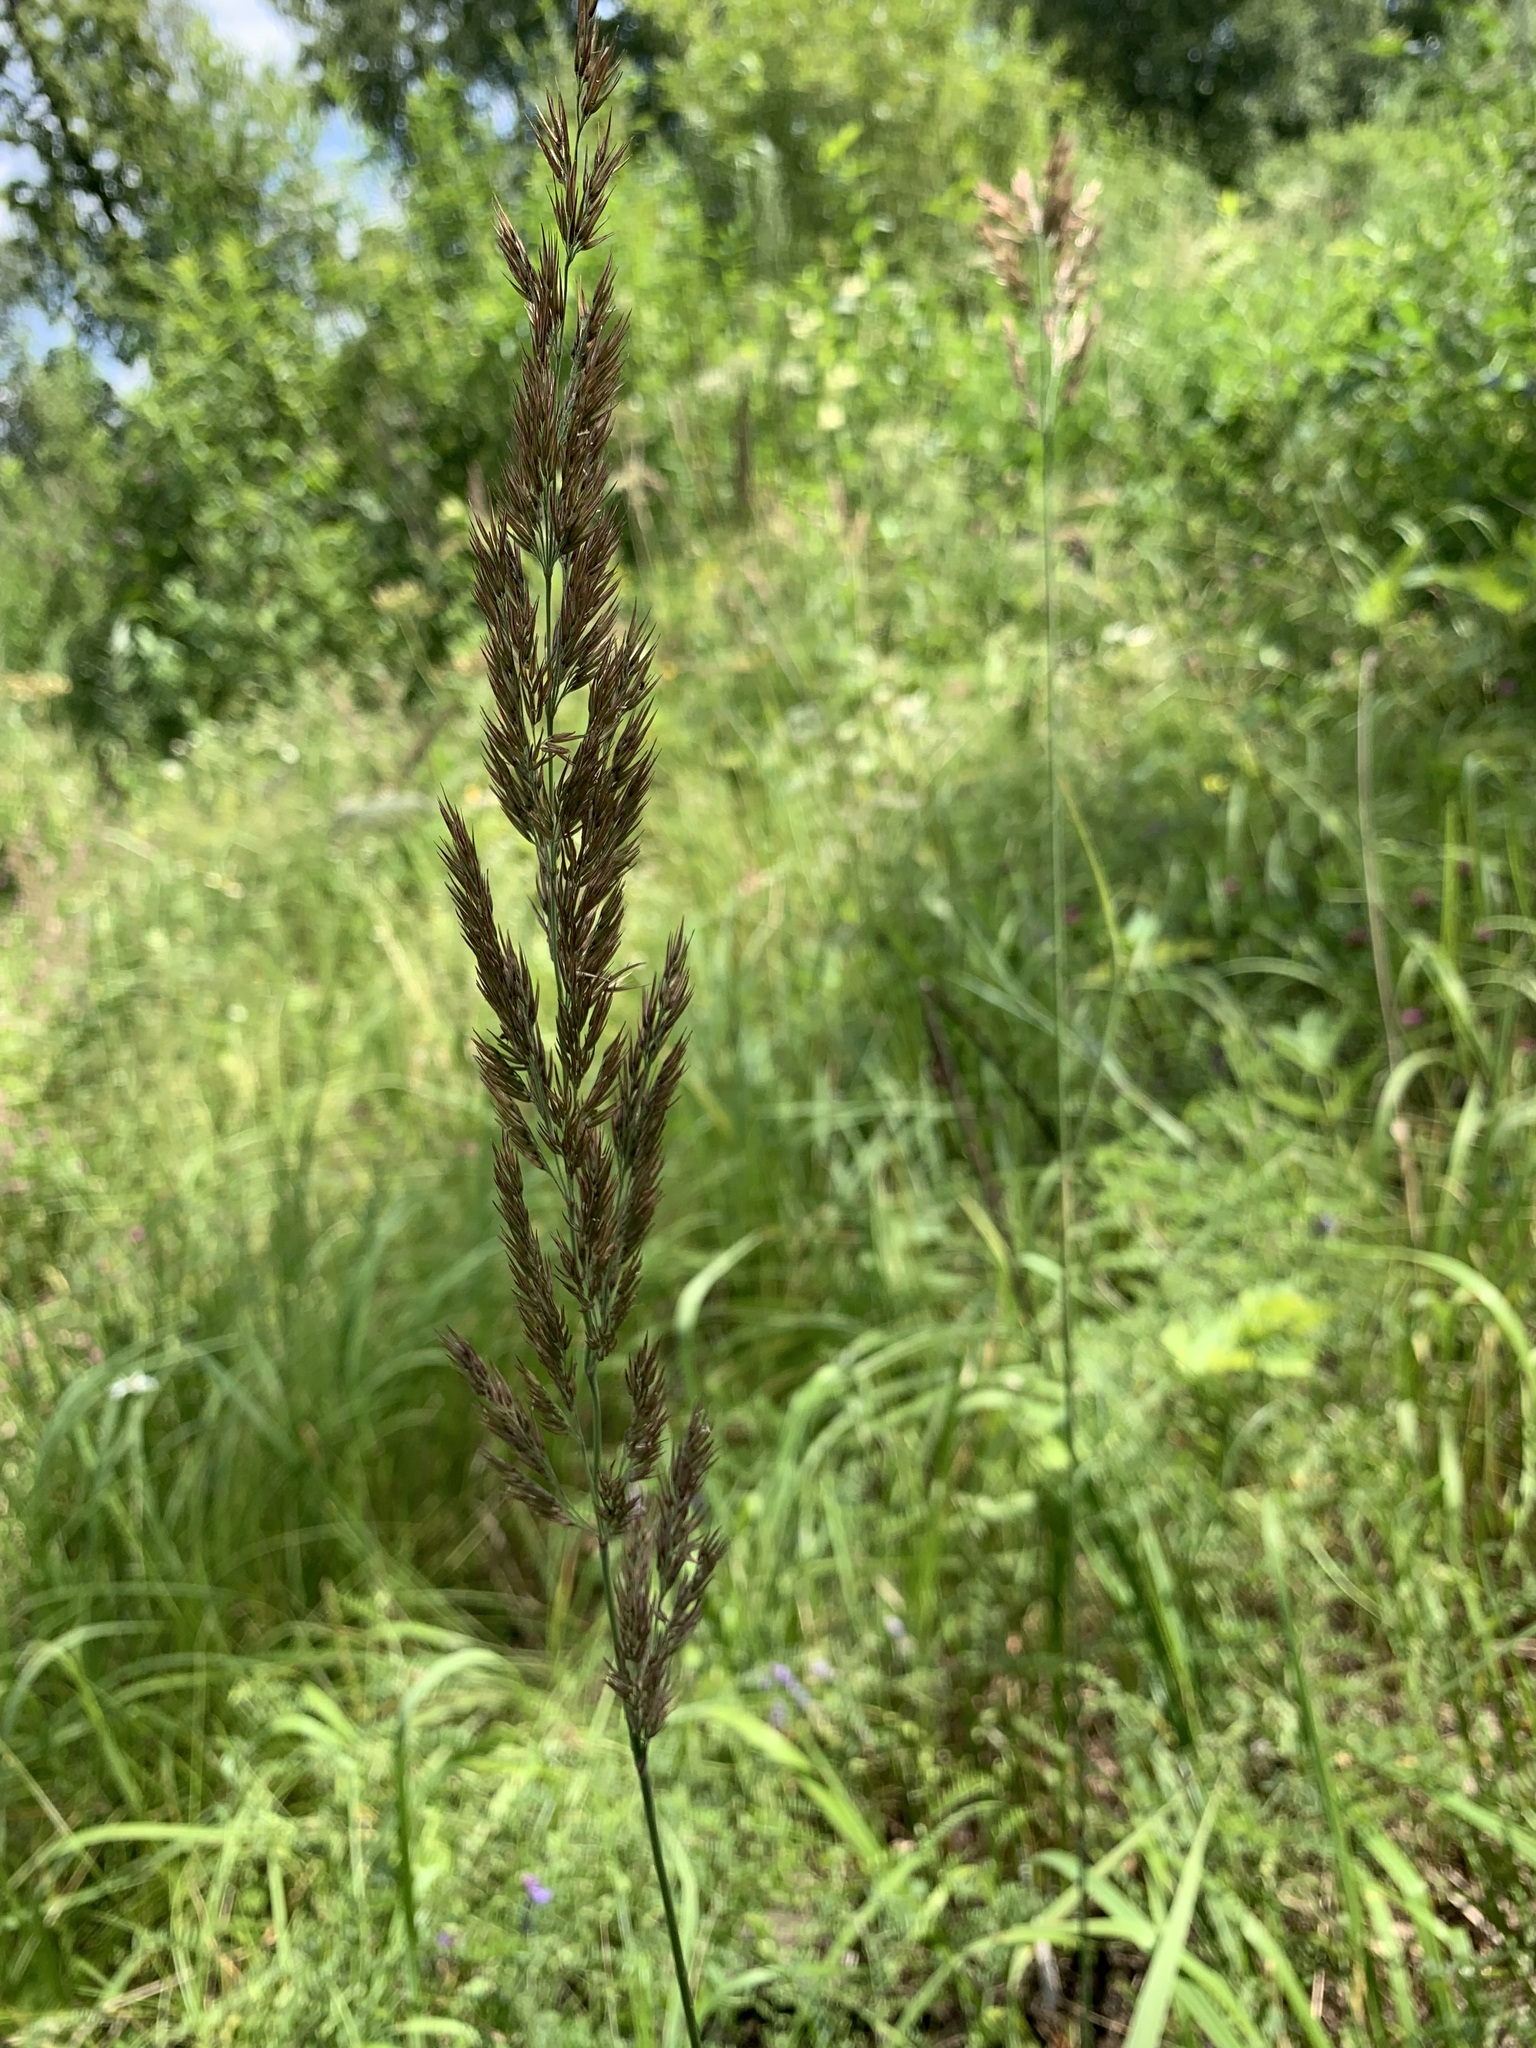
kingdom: Plantae
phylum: Tracheophyta
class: Liliopsida
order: Poales
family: Poaceae
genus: Calamagrostis
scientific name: Calamagrostis epigejos
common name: Wood small-reed
